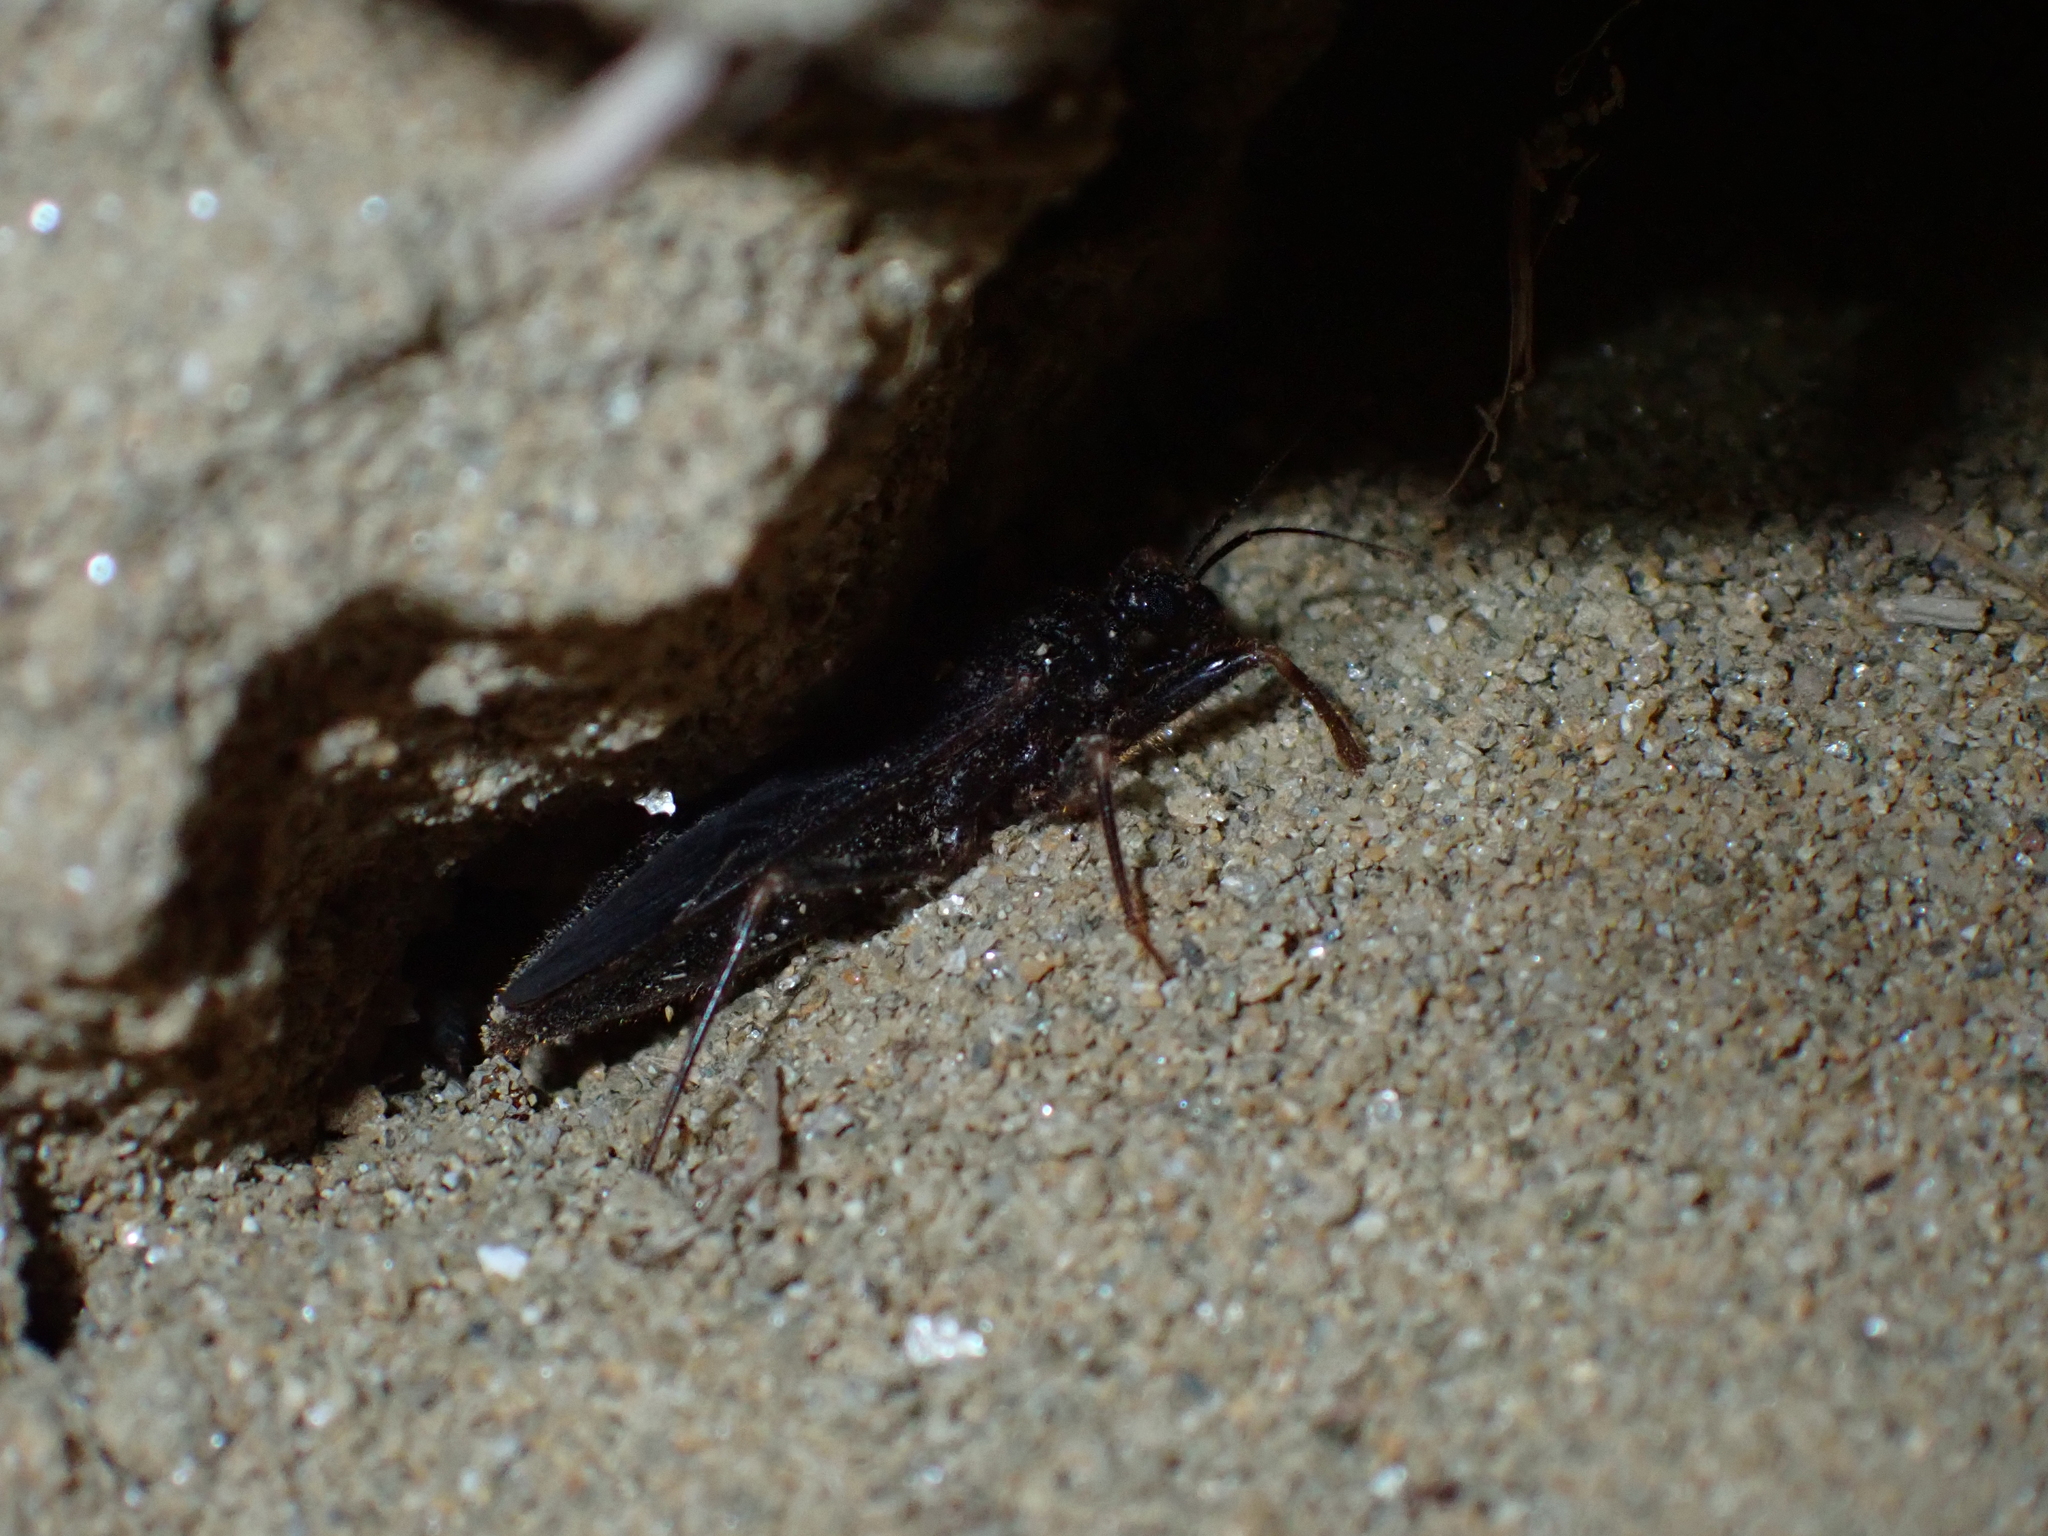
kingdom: Animalia
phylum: Arthropoda
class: Insecta
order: Hemiptera
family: Reduviidae
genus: Reduvius
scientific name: Reduvius personatus
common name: Masked hunter
